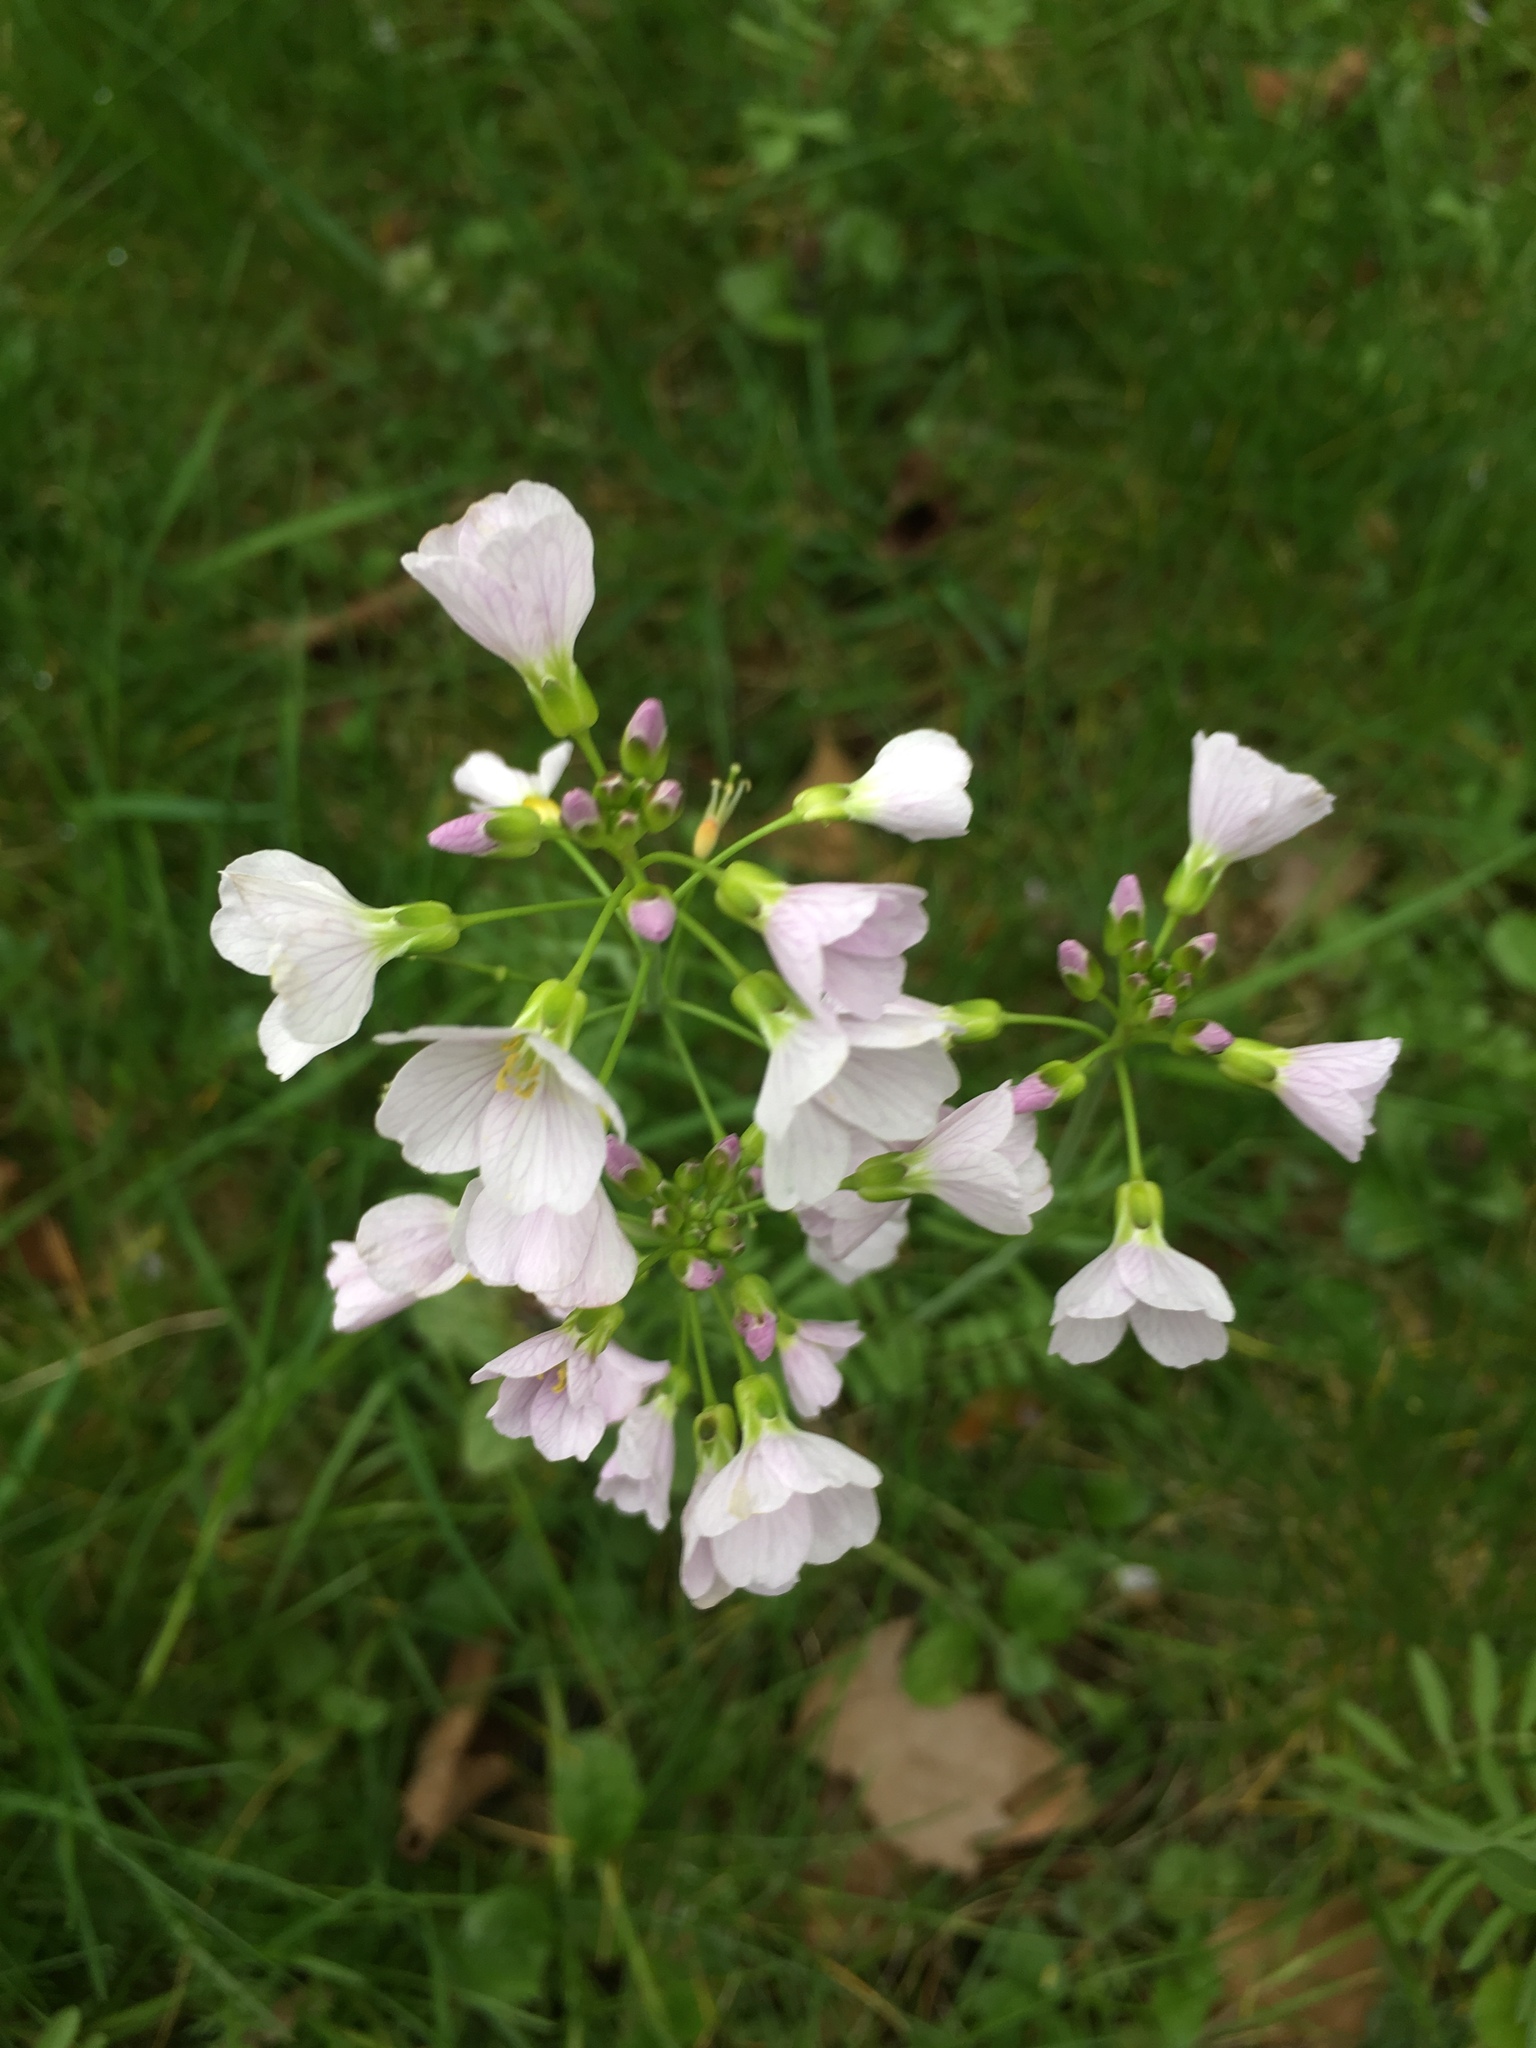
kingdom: Plantae
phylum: Tracheophyta
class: Magnoliopsida
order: Brassicales
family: Brassicaceae
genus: Cardamine
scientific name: Cardamine pratensis
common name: Cuckoo flower
